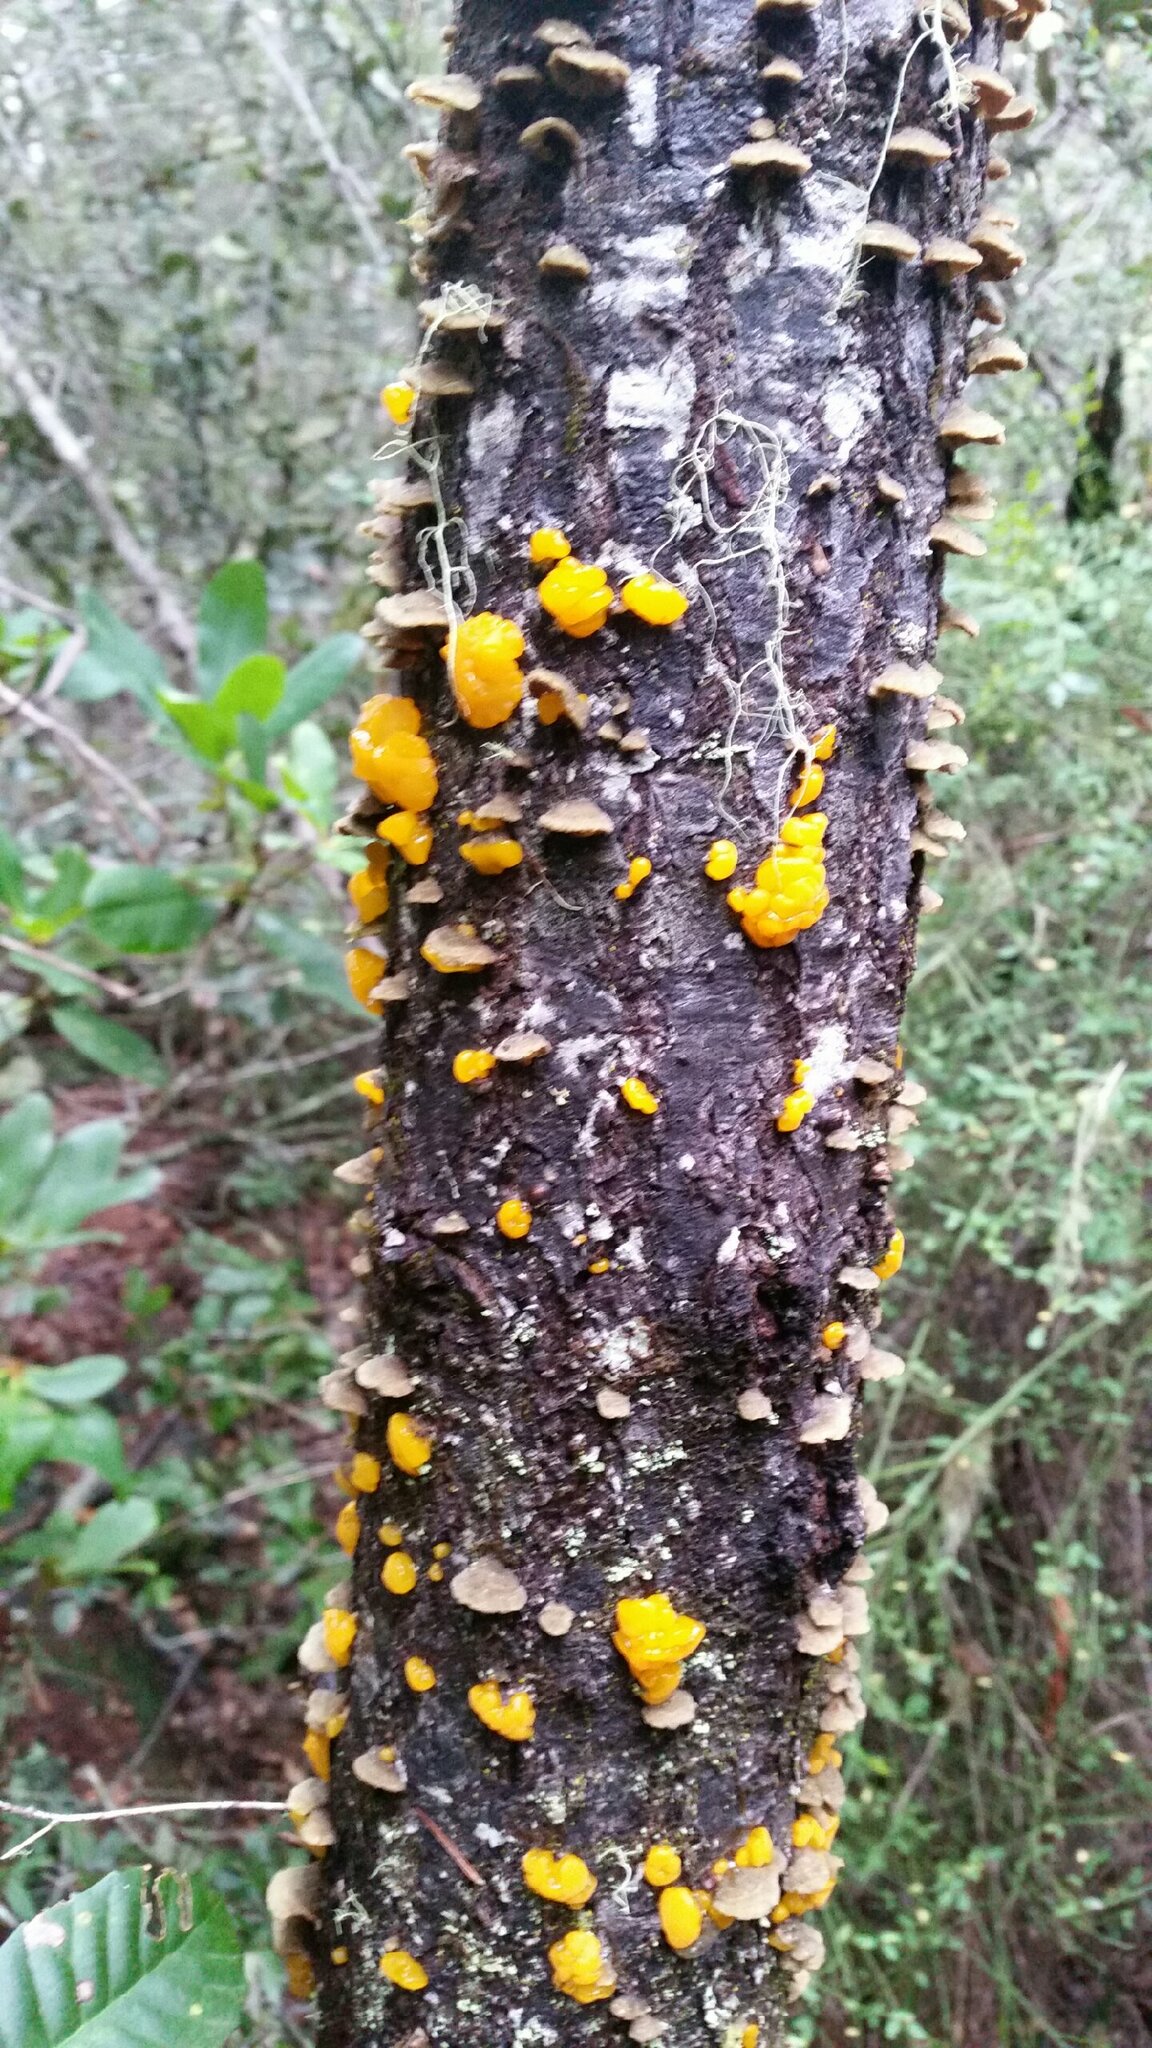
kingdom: Fungi
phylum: Basidiomycota
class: Dacrymycetes
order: Dacrymycetales
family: Dacrymycetaceae
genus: Dacrymyces
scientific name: Dacrymyces chrysospermus
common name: Orange jelly spot
